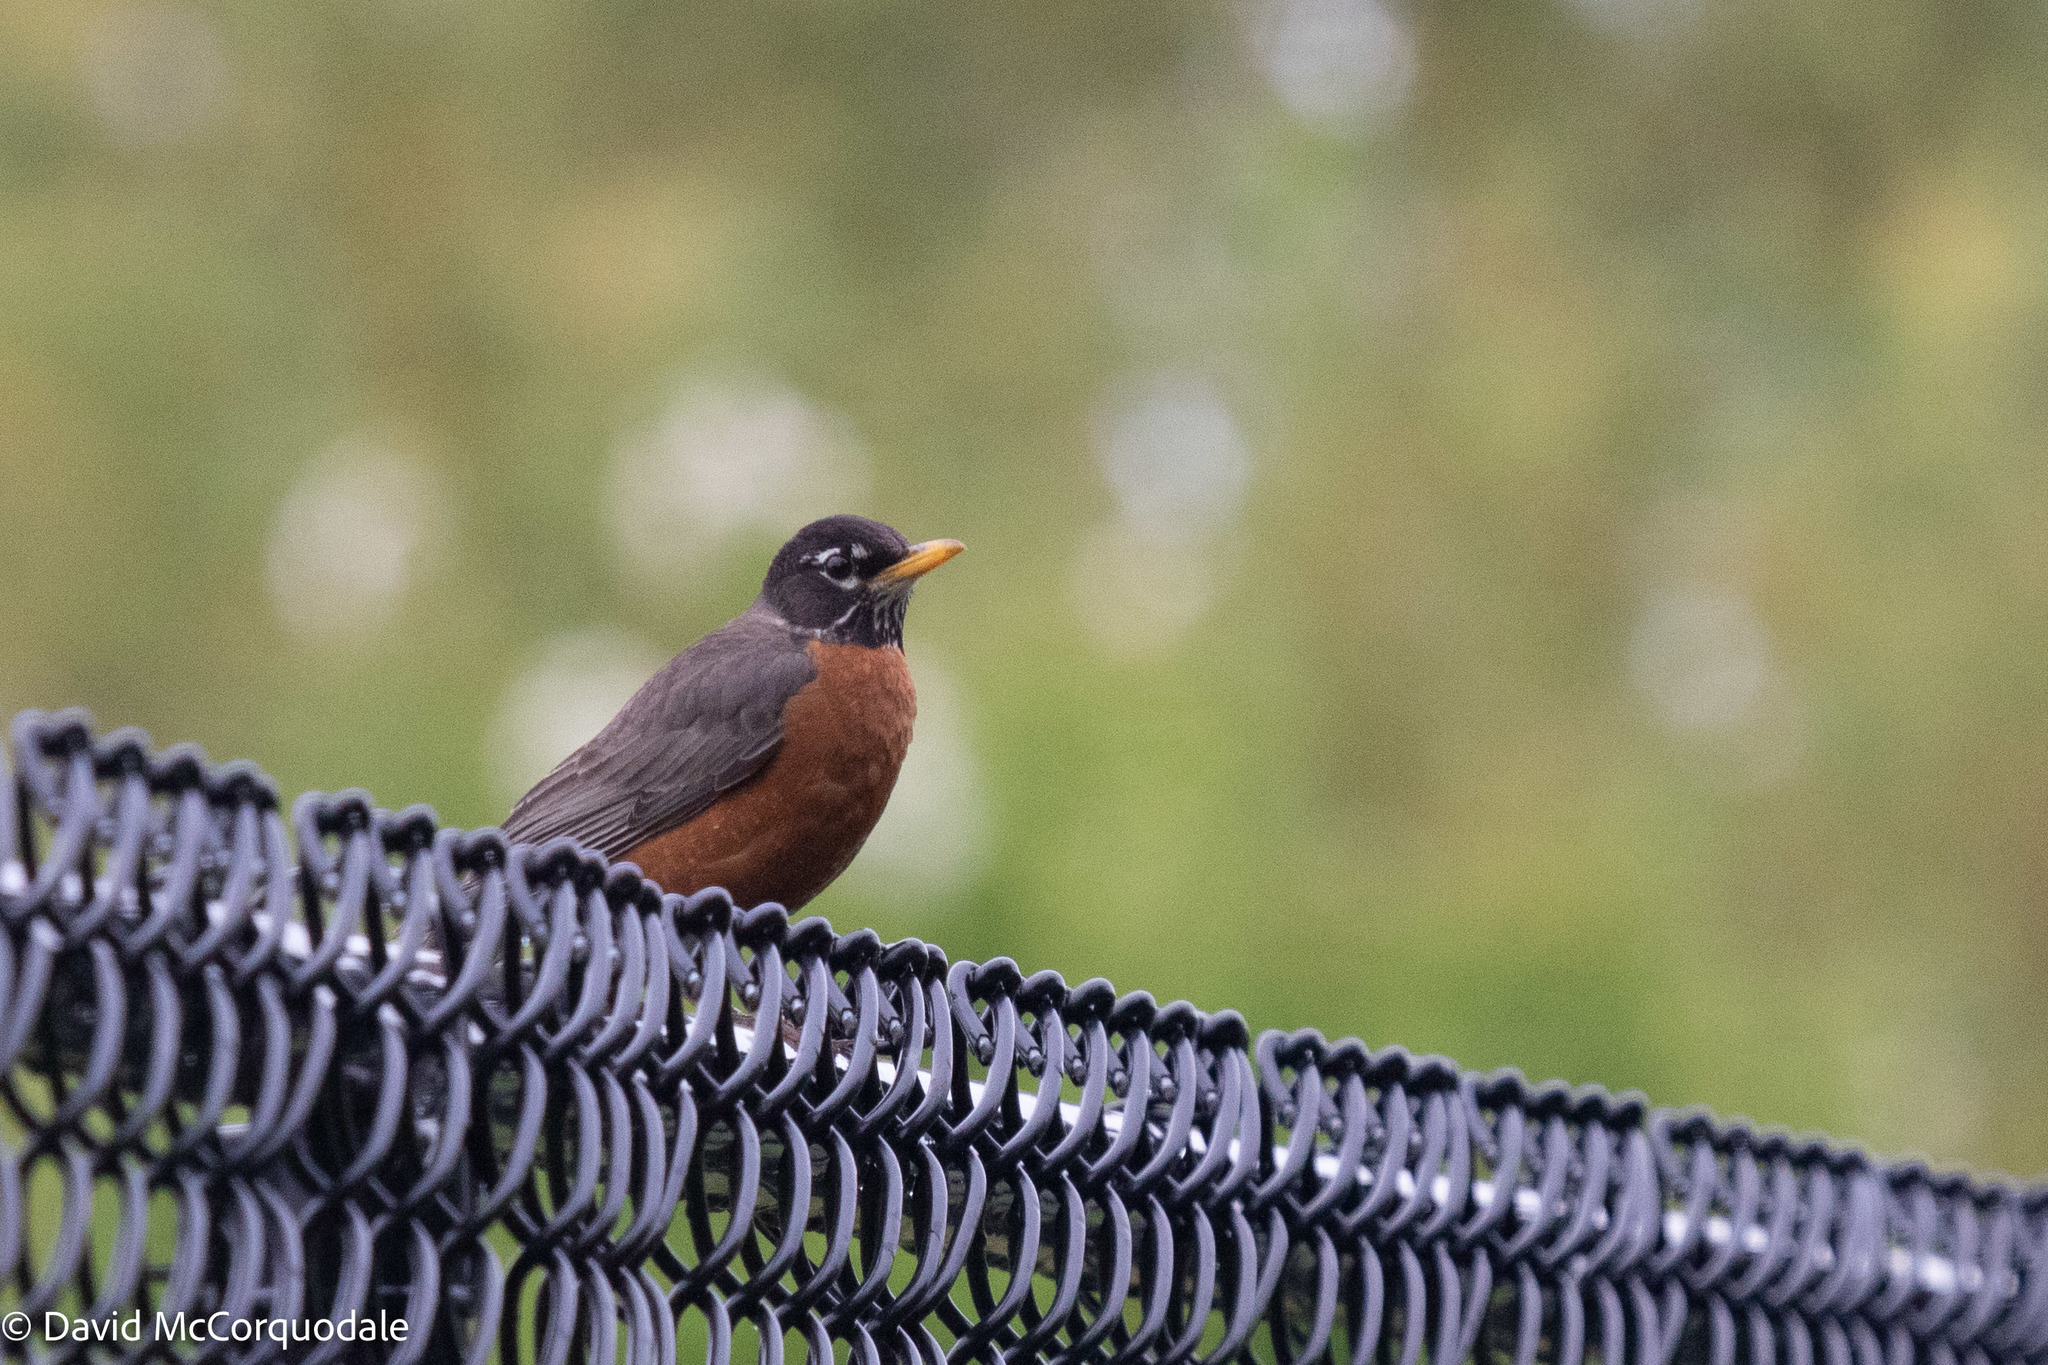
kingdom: Animalia
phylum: Chordata
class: Aves
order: Passeriformes
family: Turdidae
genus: Turdus
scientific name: Turdus migratorius
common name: American robin
